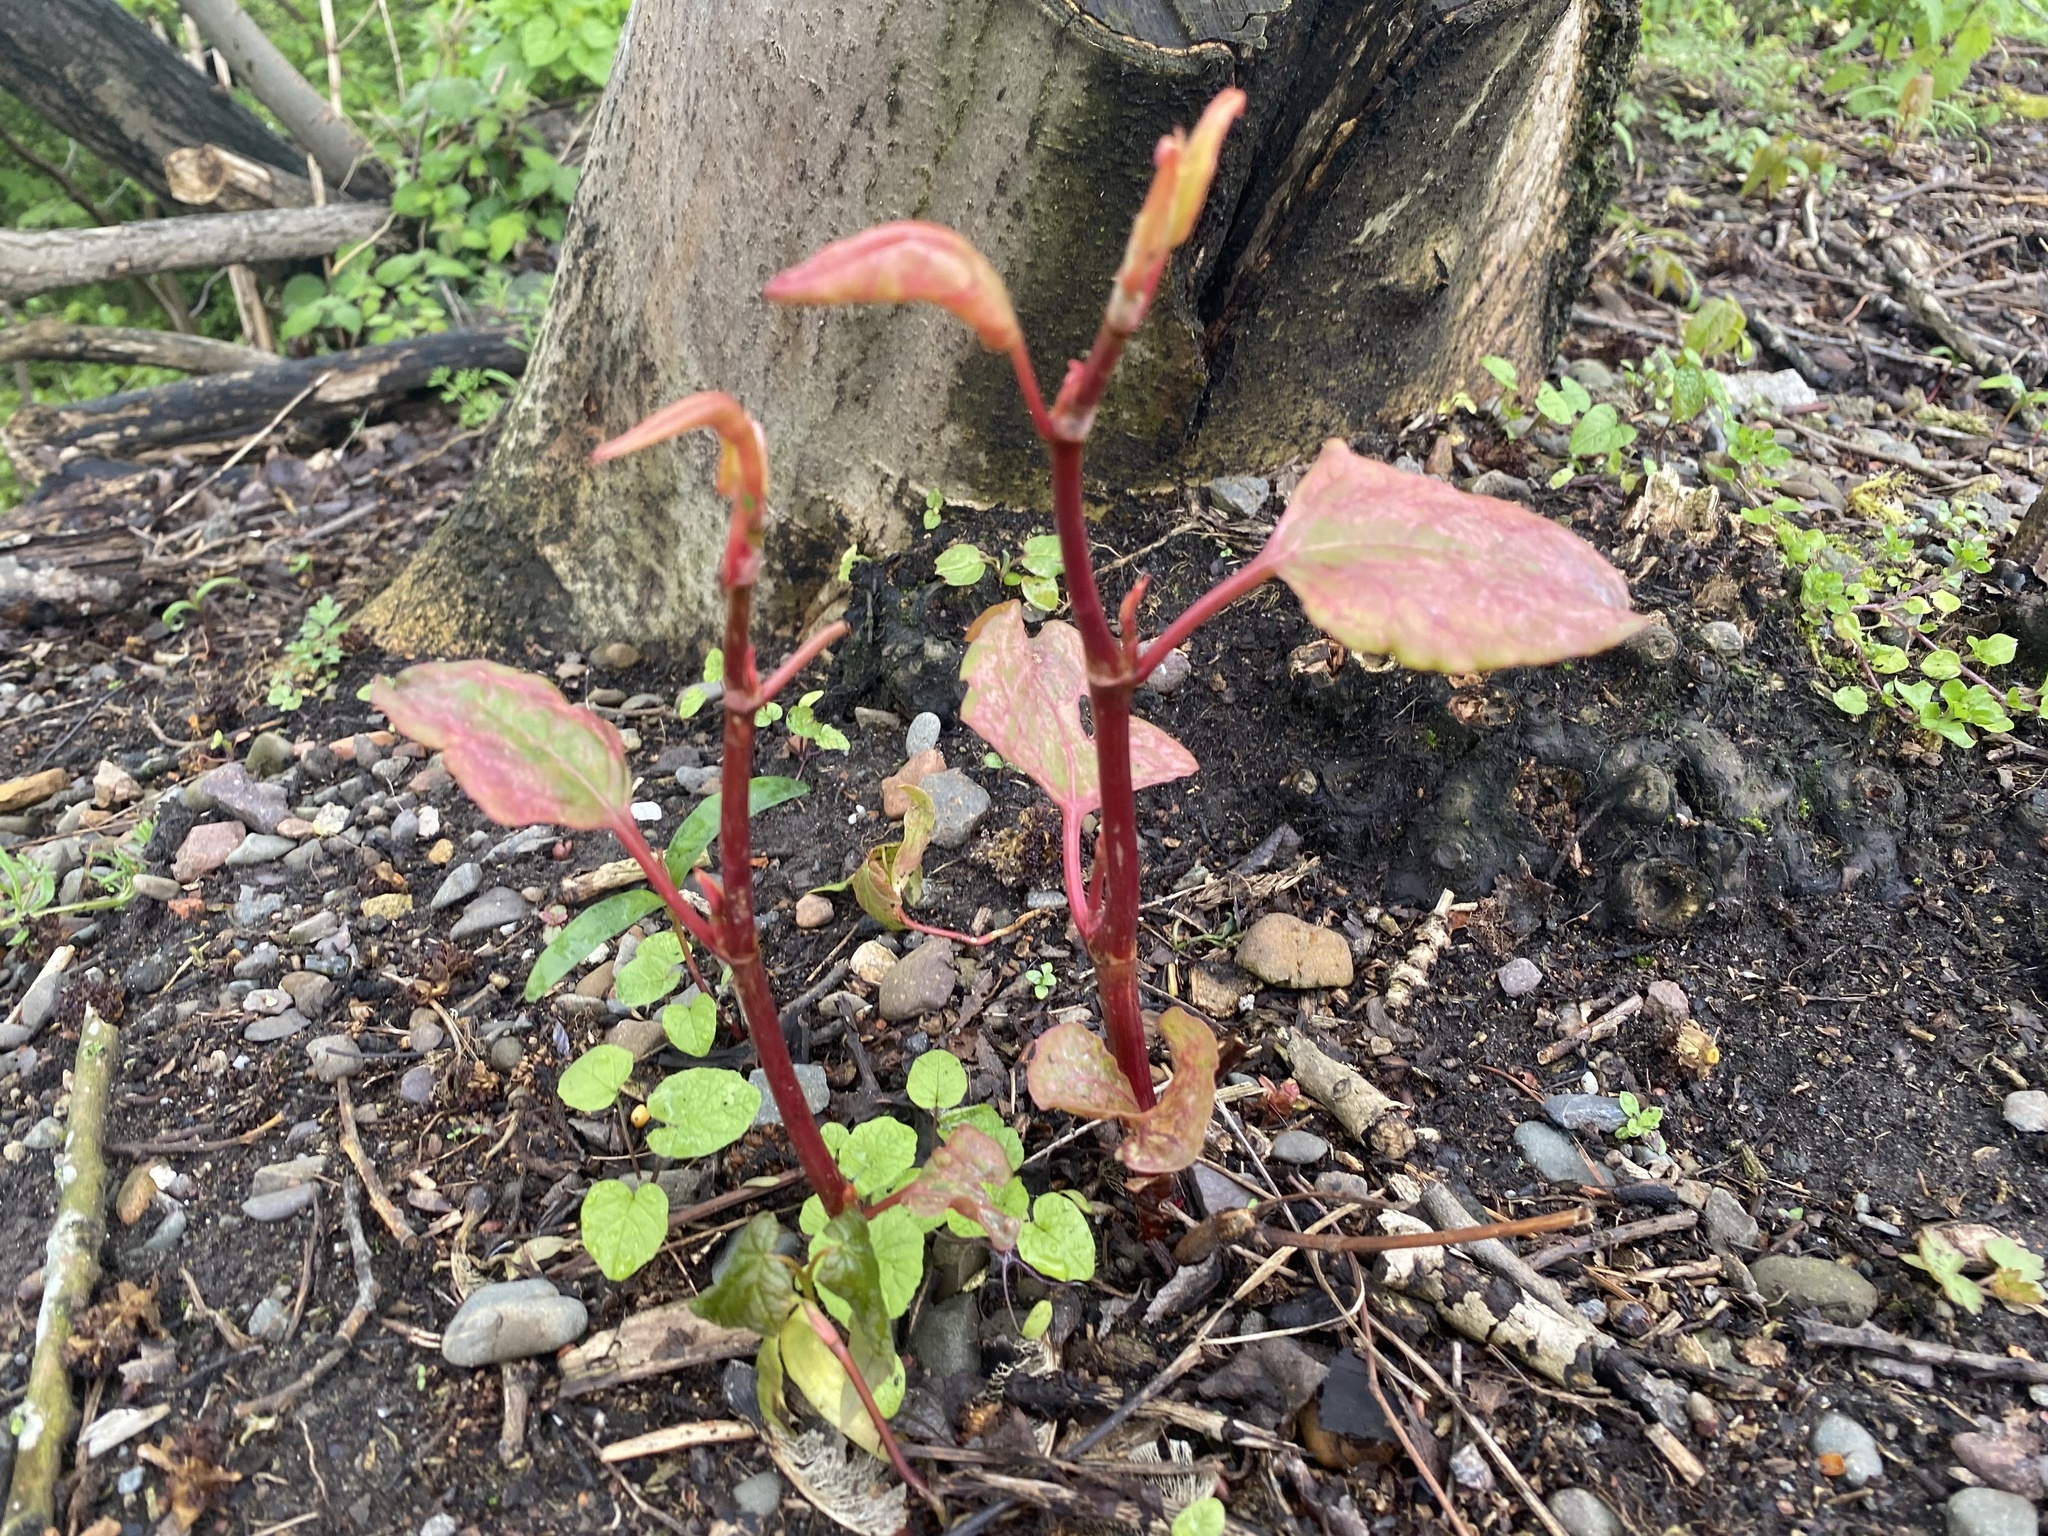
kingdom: Plantae
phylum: Tracheophyta
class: Magnoliopsida
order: Caryophyllales
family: Polygonaceae
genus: Reynoutria
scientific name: Reynoutria japonica
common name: Japanese knotweed
